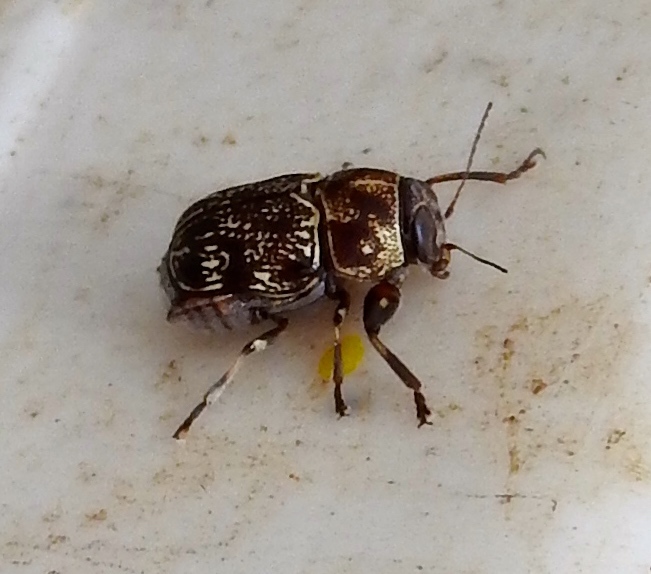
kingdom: Animalia
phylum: Arthropoda
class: Insecta
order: Coleoptera
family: Chrysomelidae
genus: Pachybrachis
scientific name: Pachybrachis
